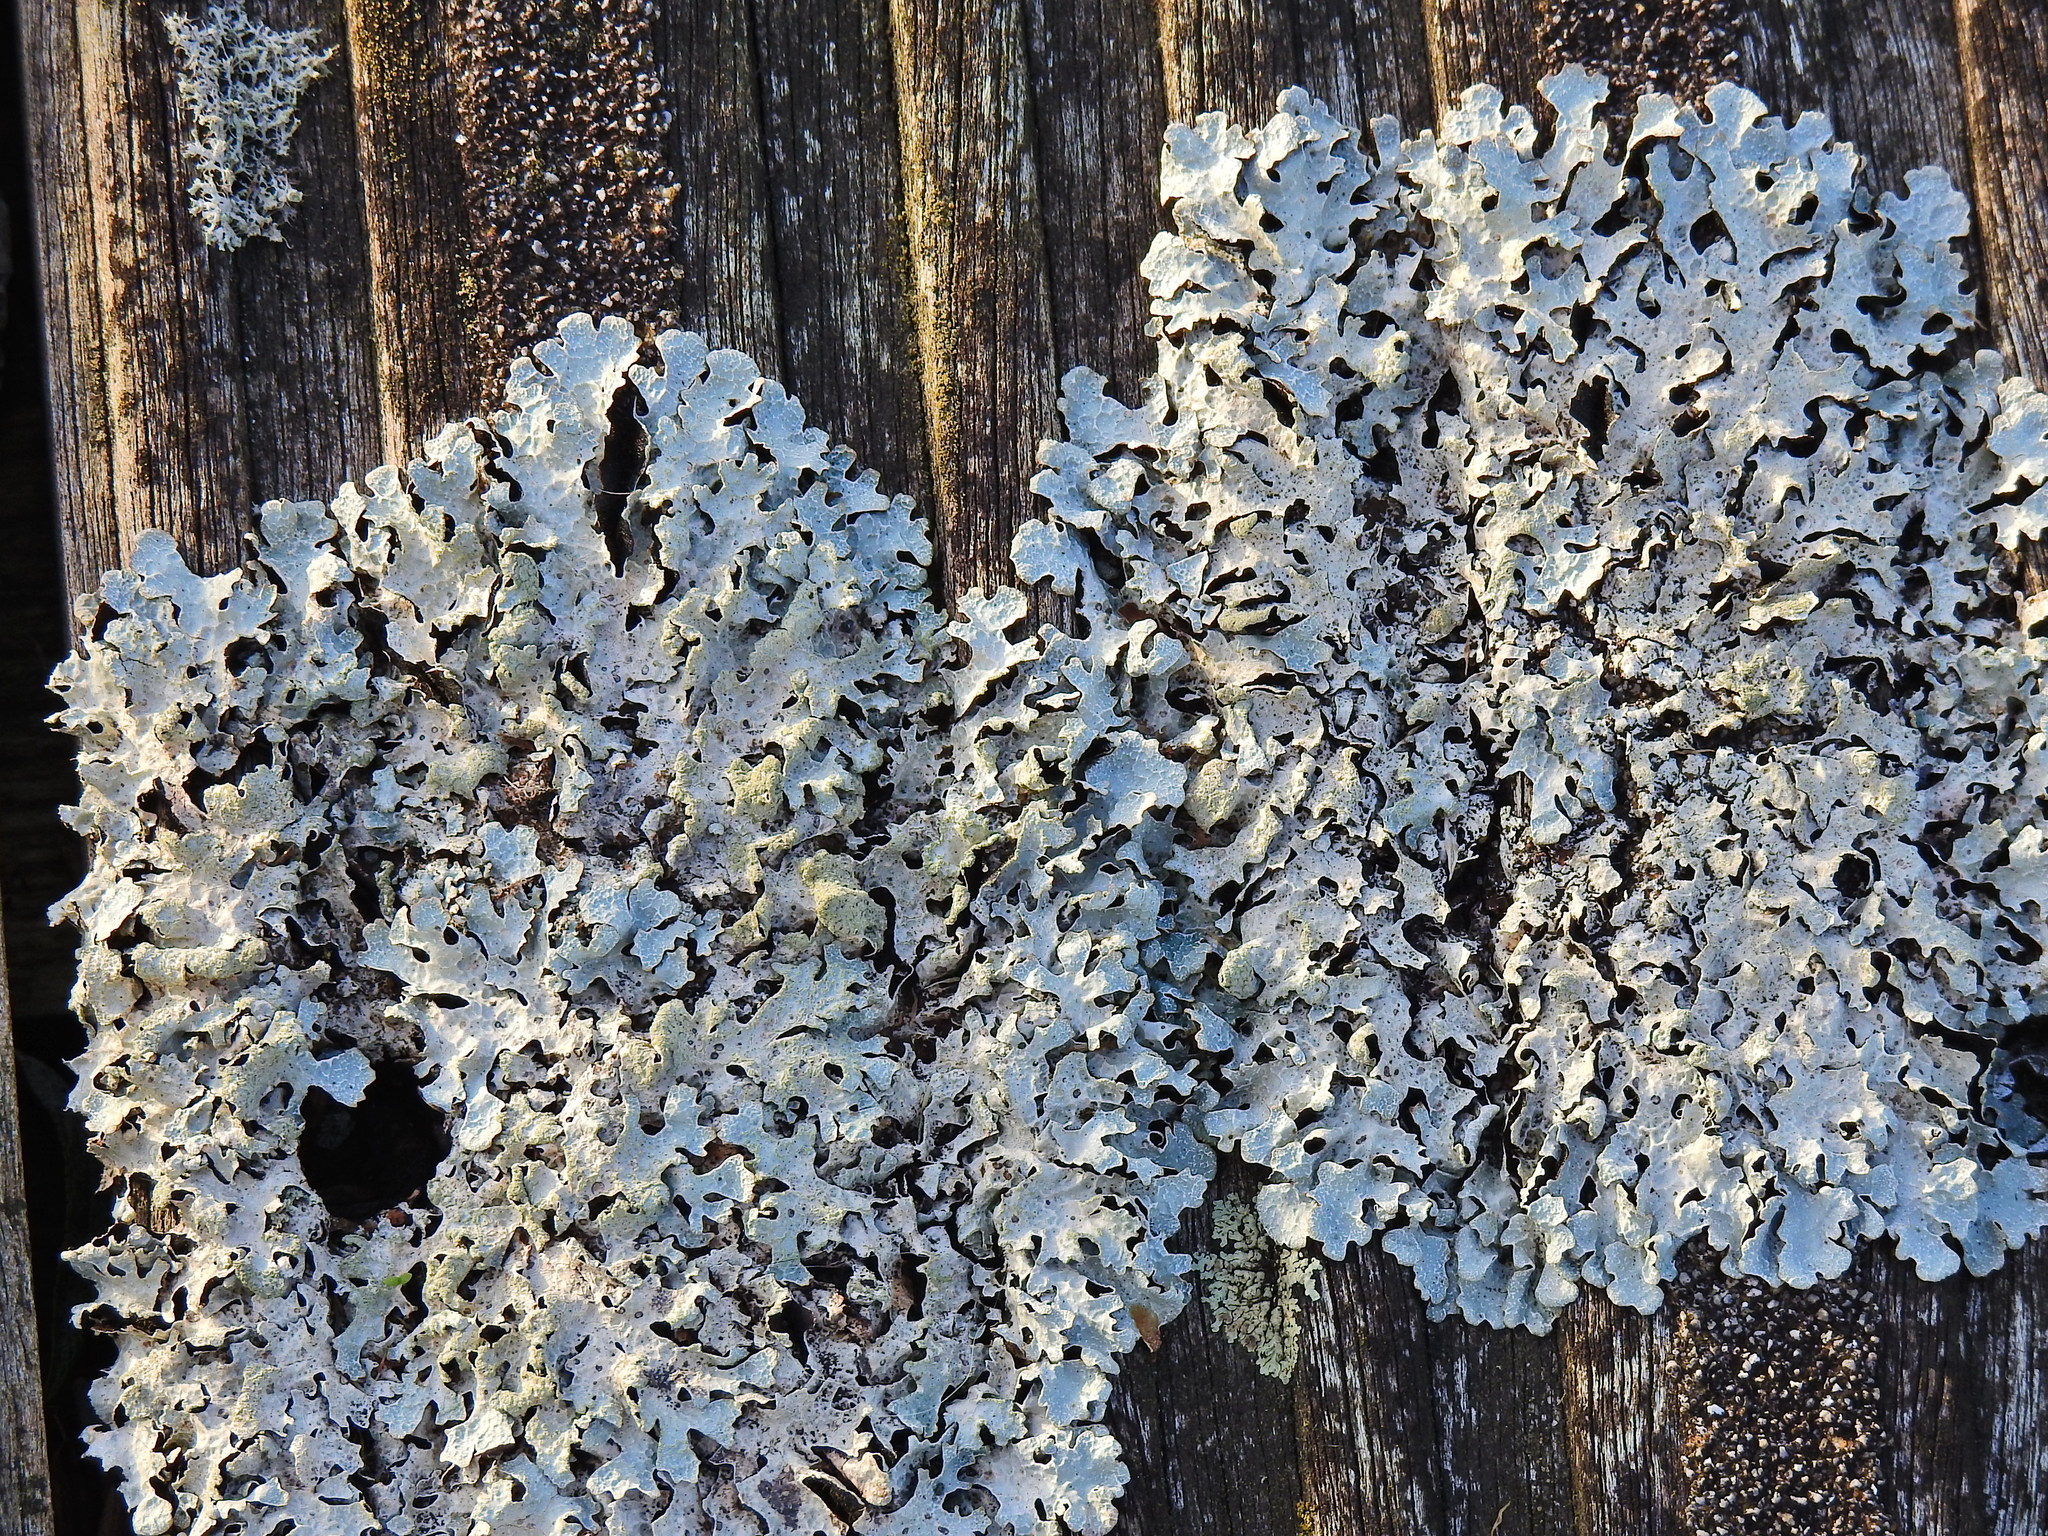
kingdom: Fungi
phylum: Ascomycota
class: Lecanoromycetes
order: Lecanorales
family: Parmeliaceae
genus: Parmelia
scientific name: Parmelia sulcata
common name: Netted shield lichen
